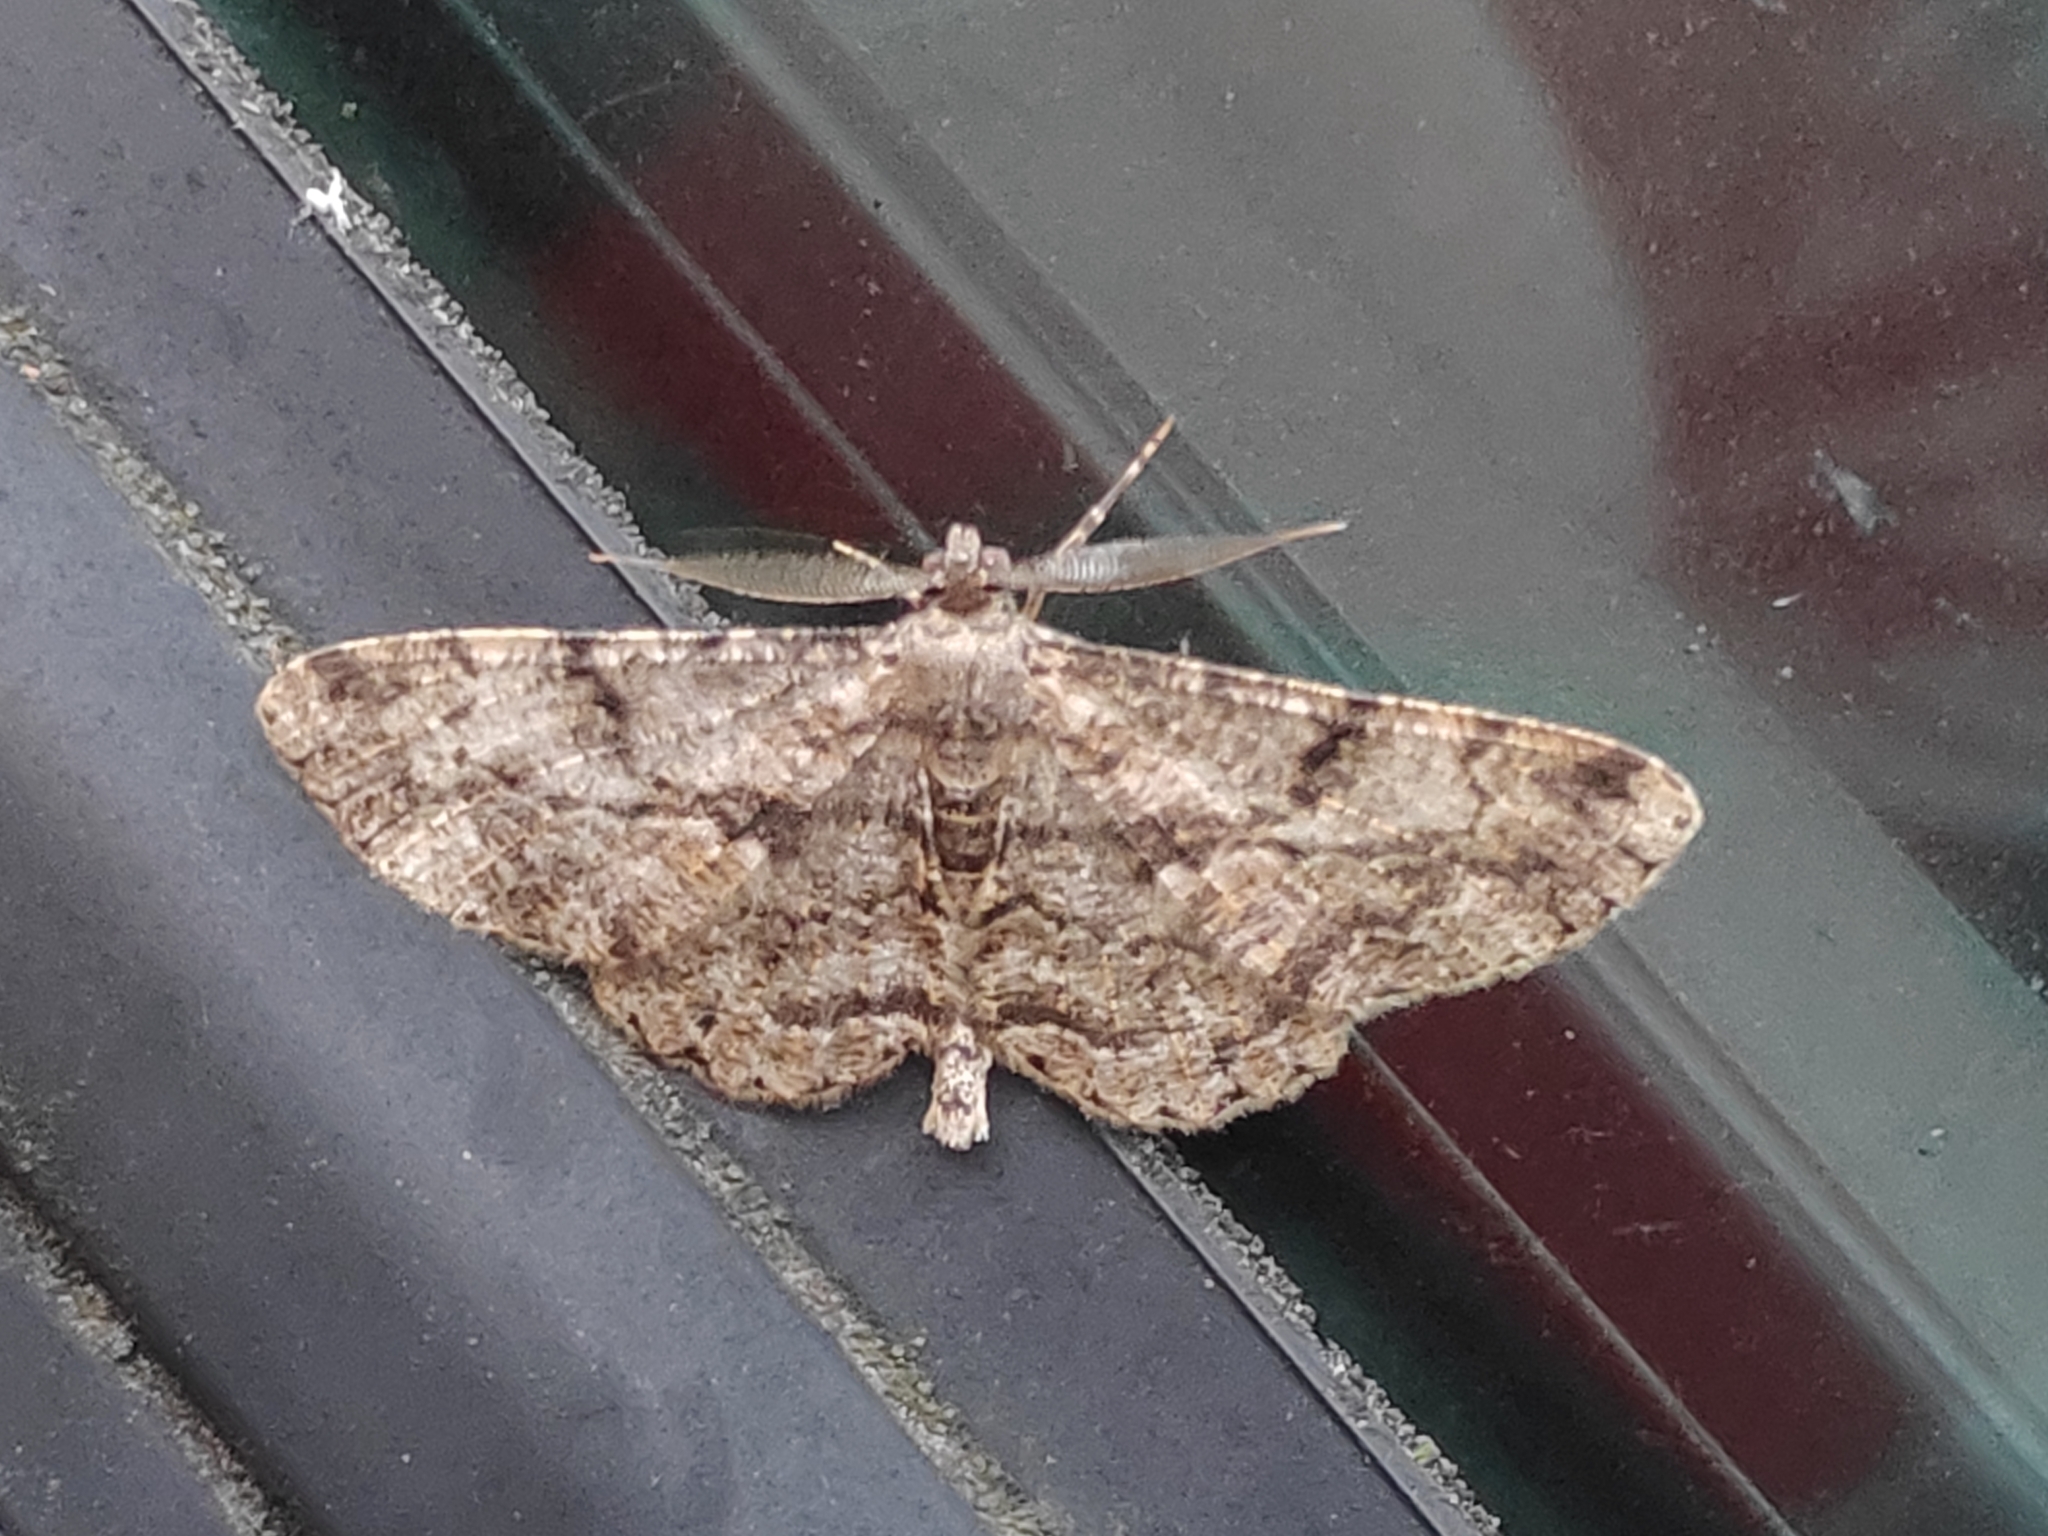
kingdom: Animalia
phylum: Arthropoda
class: Insecta
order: Lepidoptera
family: Geometridae
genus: Peribatodes
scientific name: Peribatodes rhomboidaria
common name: Willow beauty
